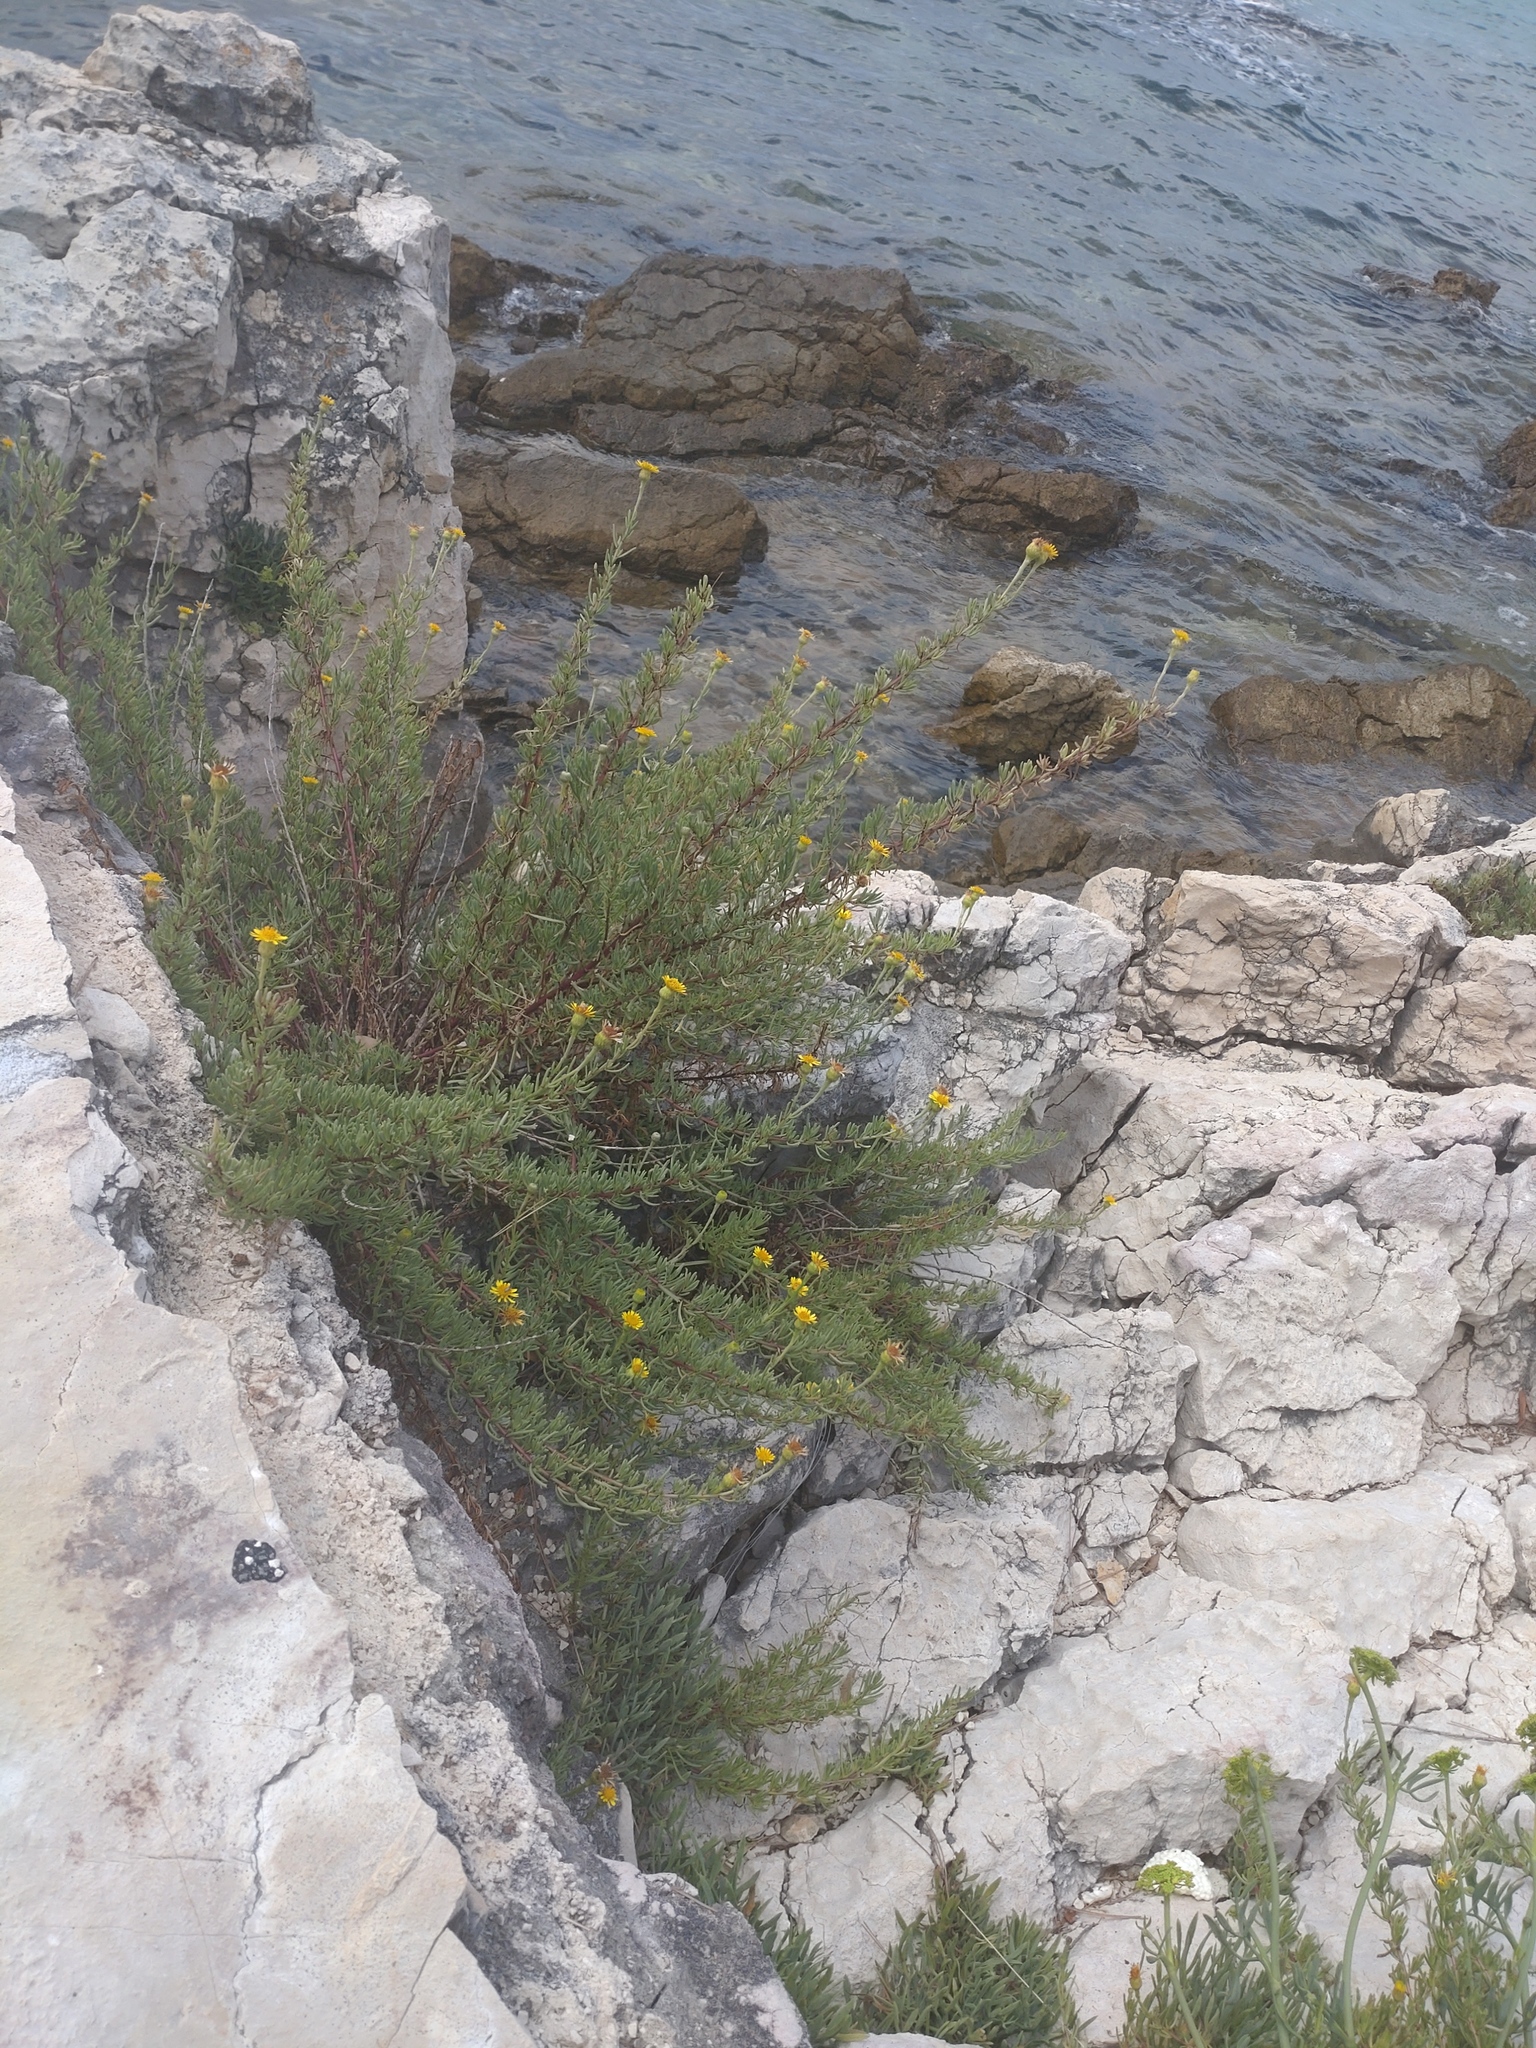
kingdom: Plantae
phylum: Tracheophyta
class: Magnoliopsida
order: Asterales
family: Asteraceae
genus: Limbarda
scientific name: Limbarda crithmoides
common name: Golden samphire
